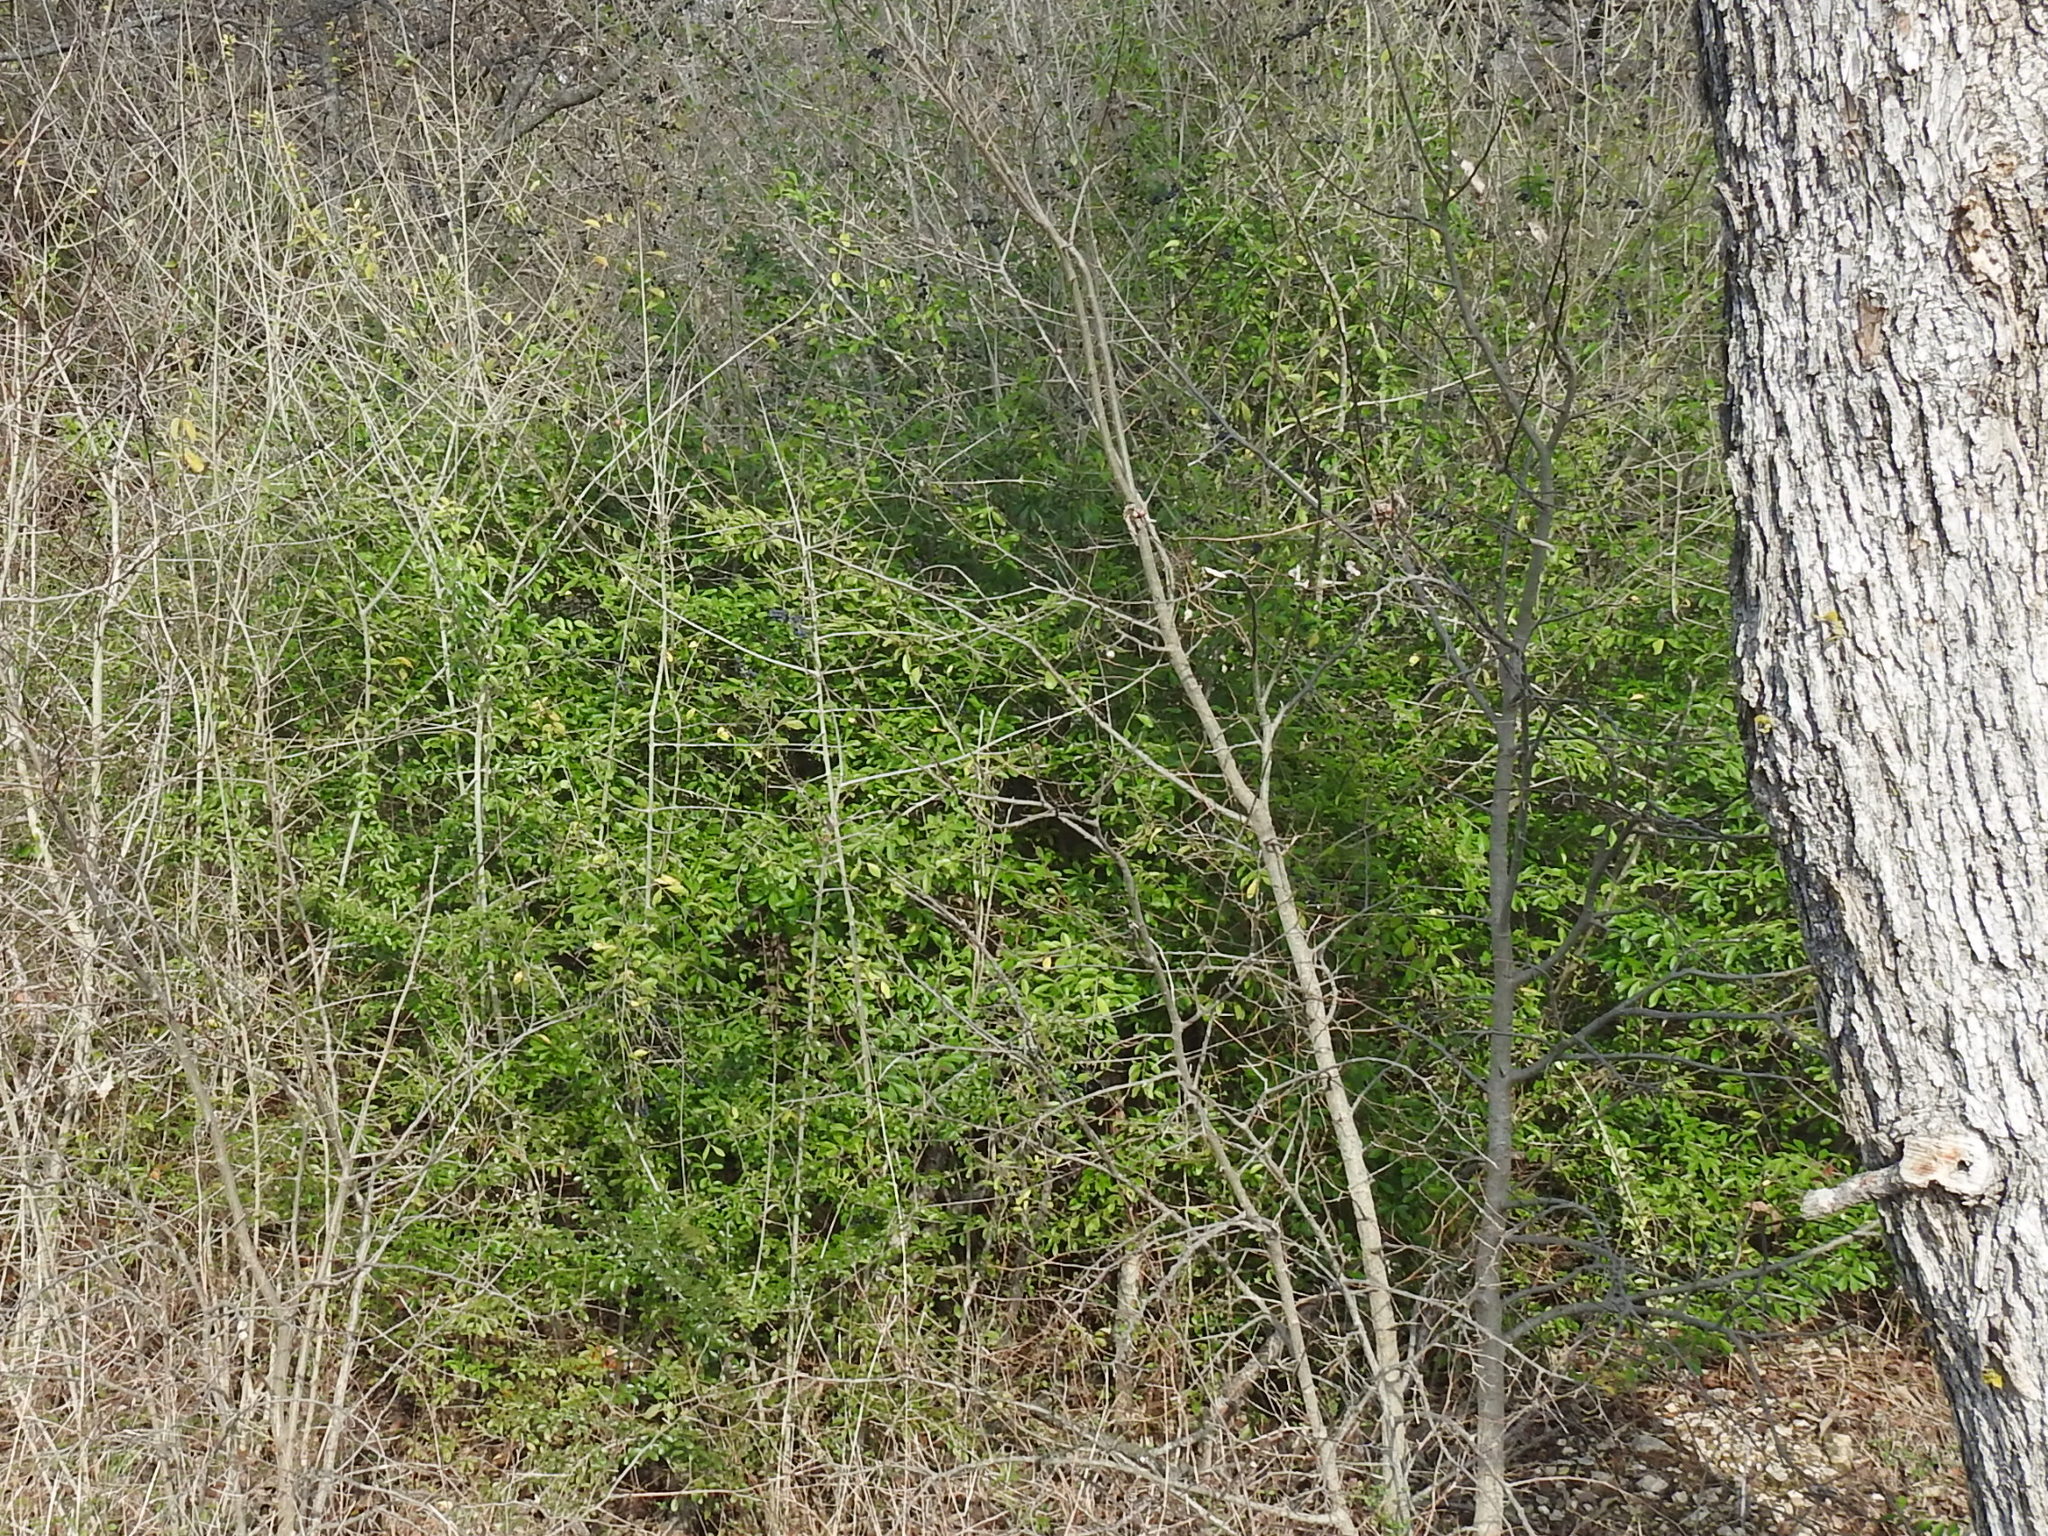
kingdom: Plantae
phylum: Tracheophyta
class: Magnoliopsida
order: Lamiales
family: Oleaceae
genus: Ligustrum
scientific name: Ligustrum quihoui
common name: Waxyleaf privet
